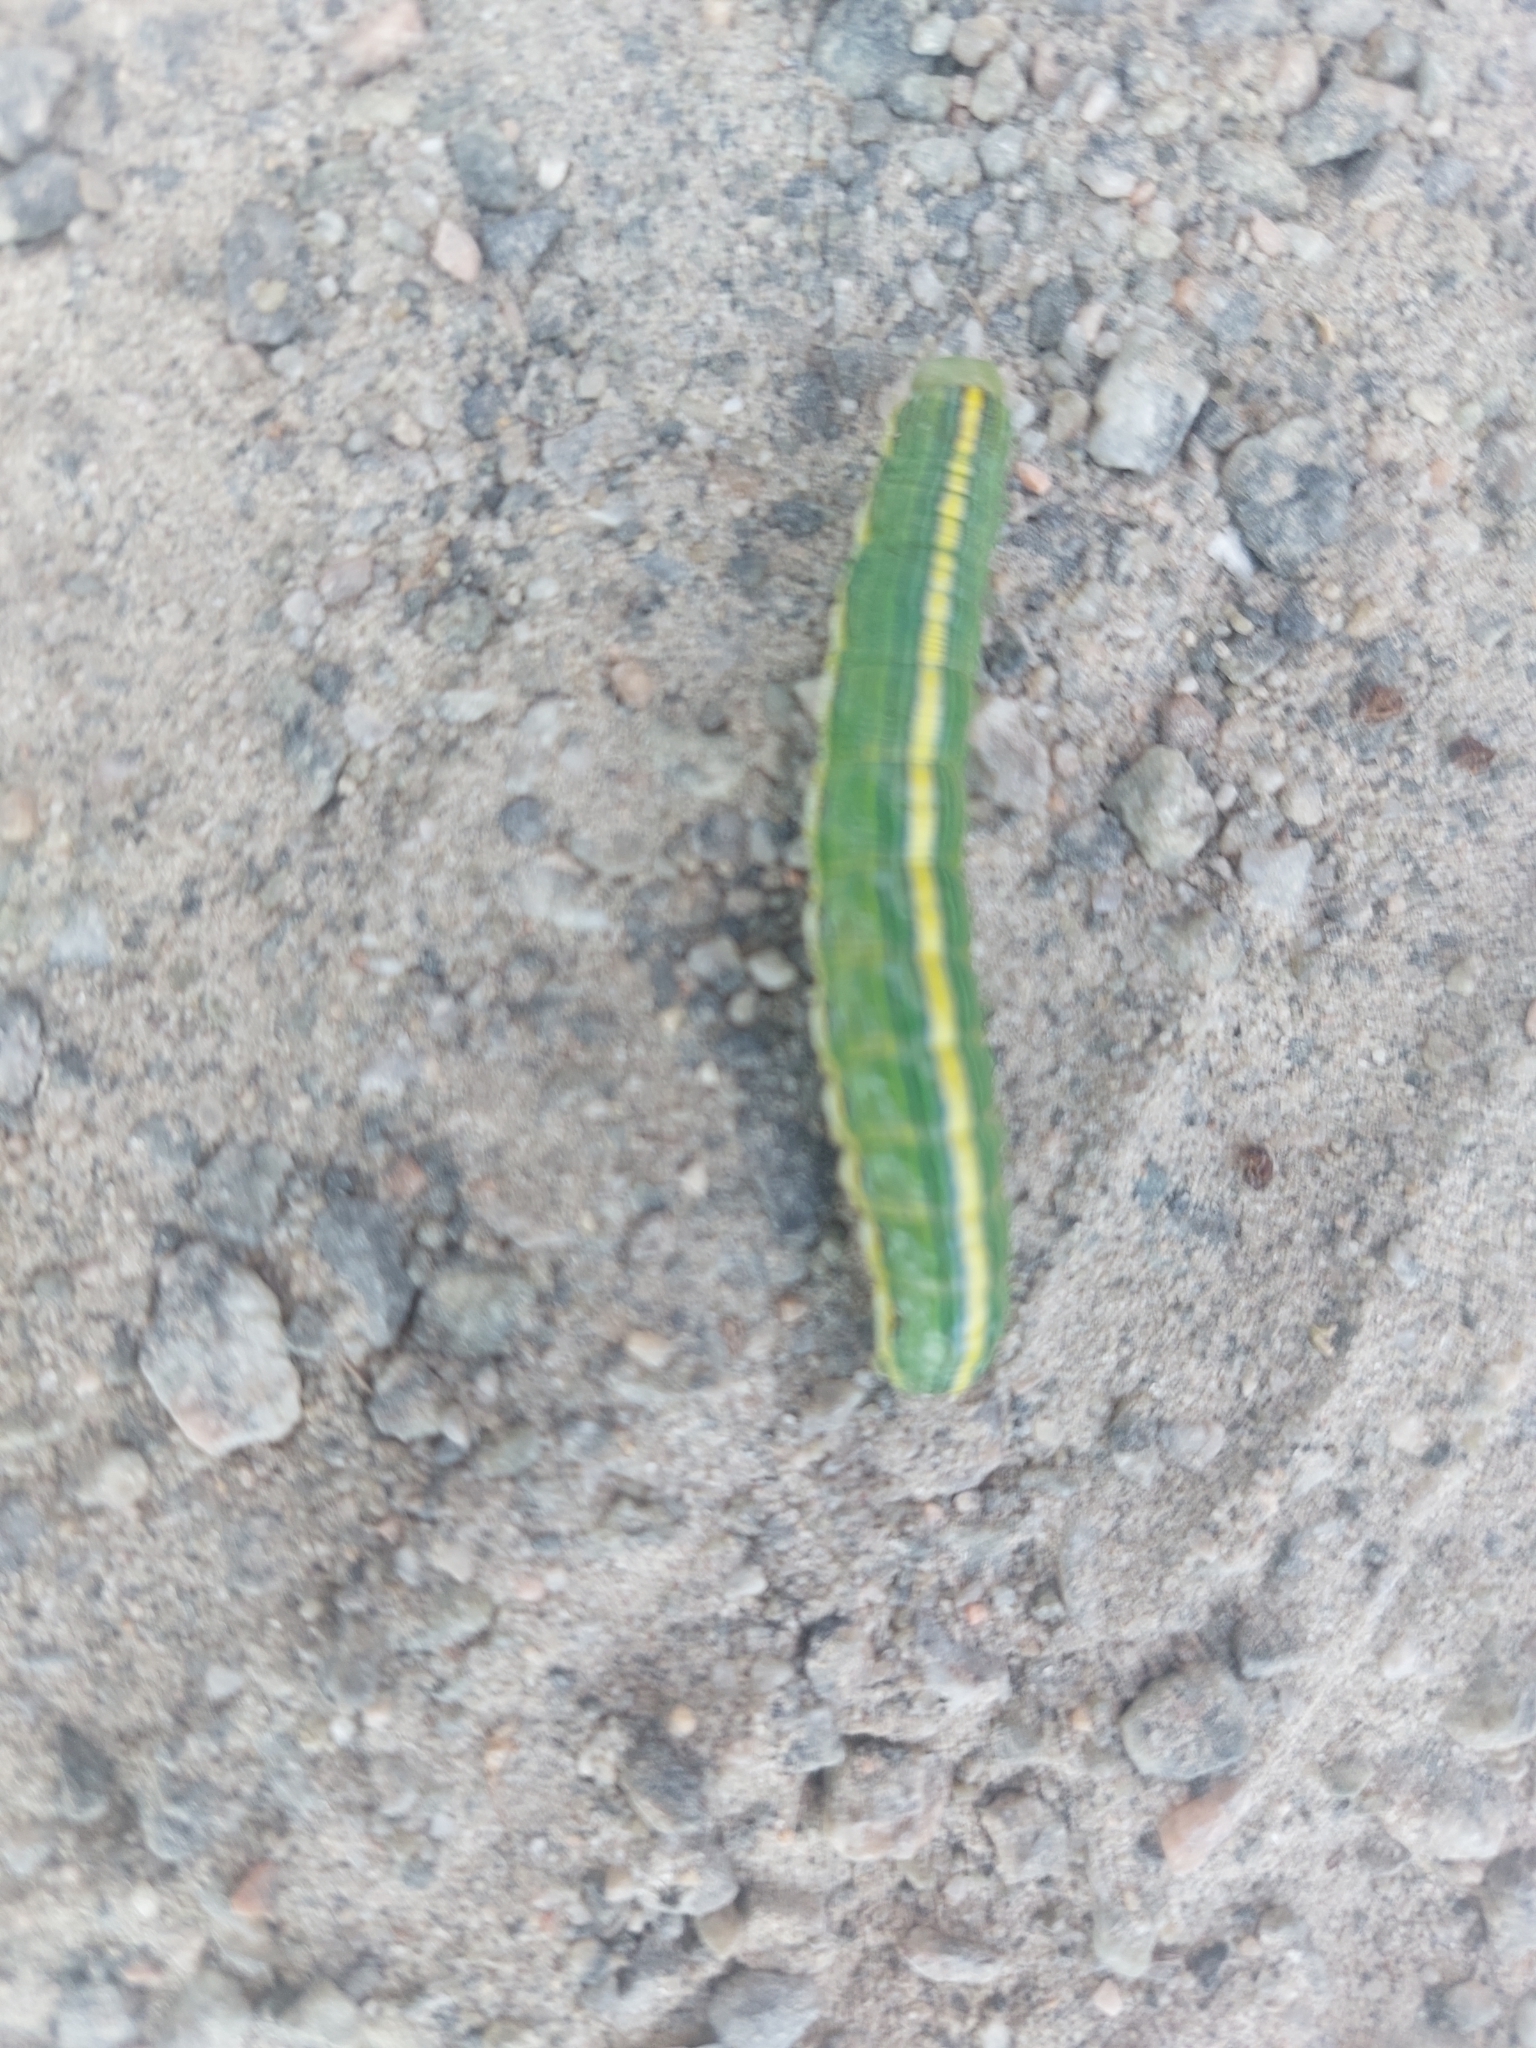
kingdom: Animalia
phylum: Arthropoda
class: Insecta
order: Lepidoptera
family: Noctuidae
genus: Cucullia
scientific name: Cucullia asteroides
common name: Asteroid moth
